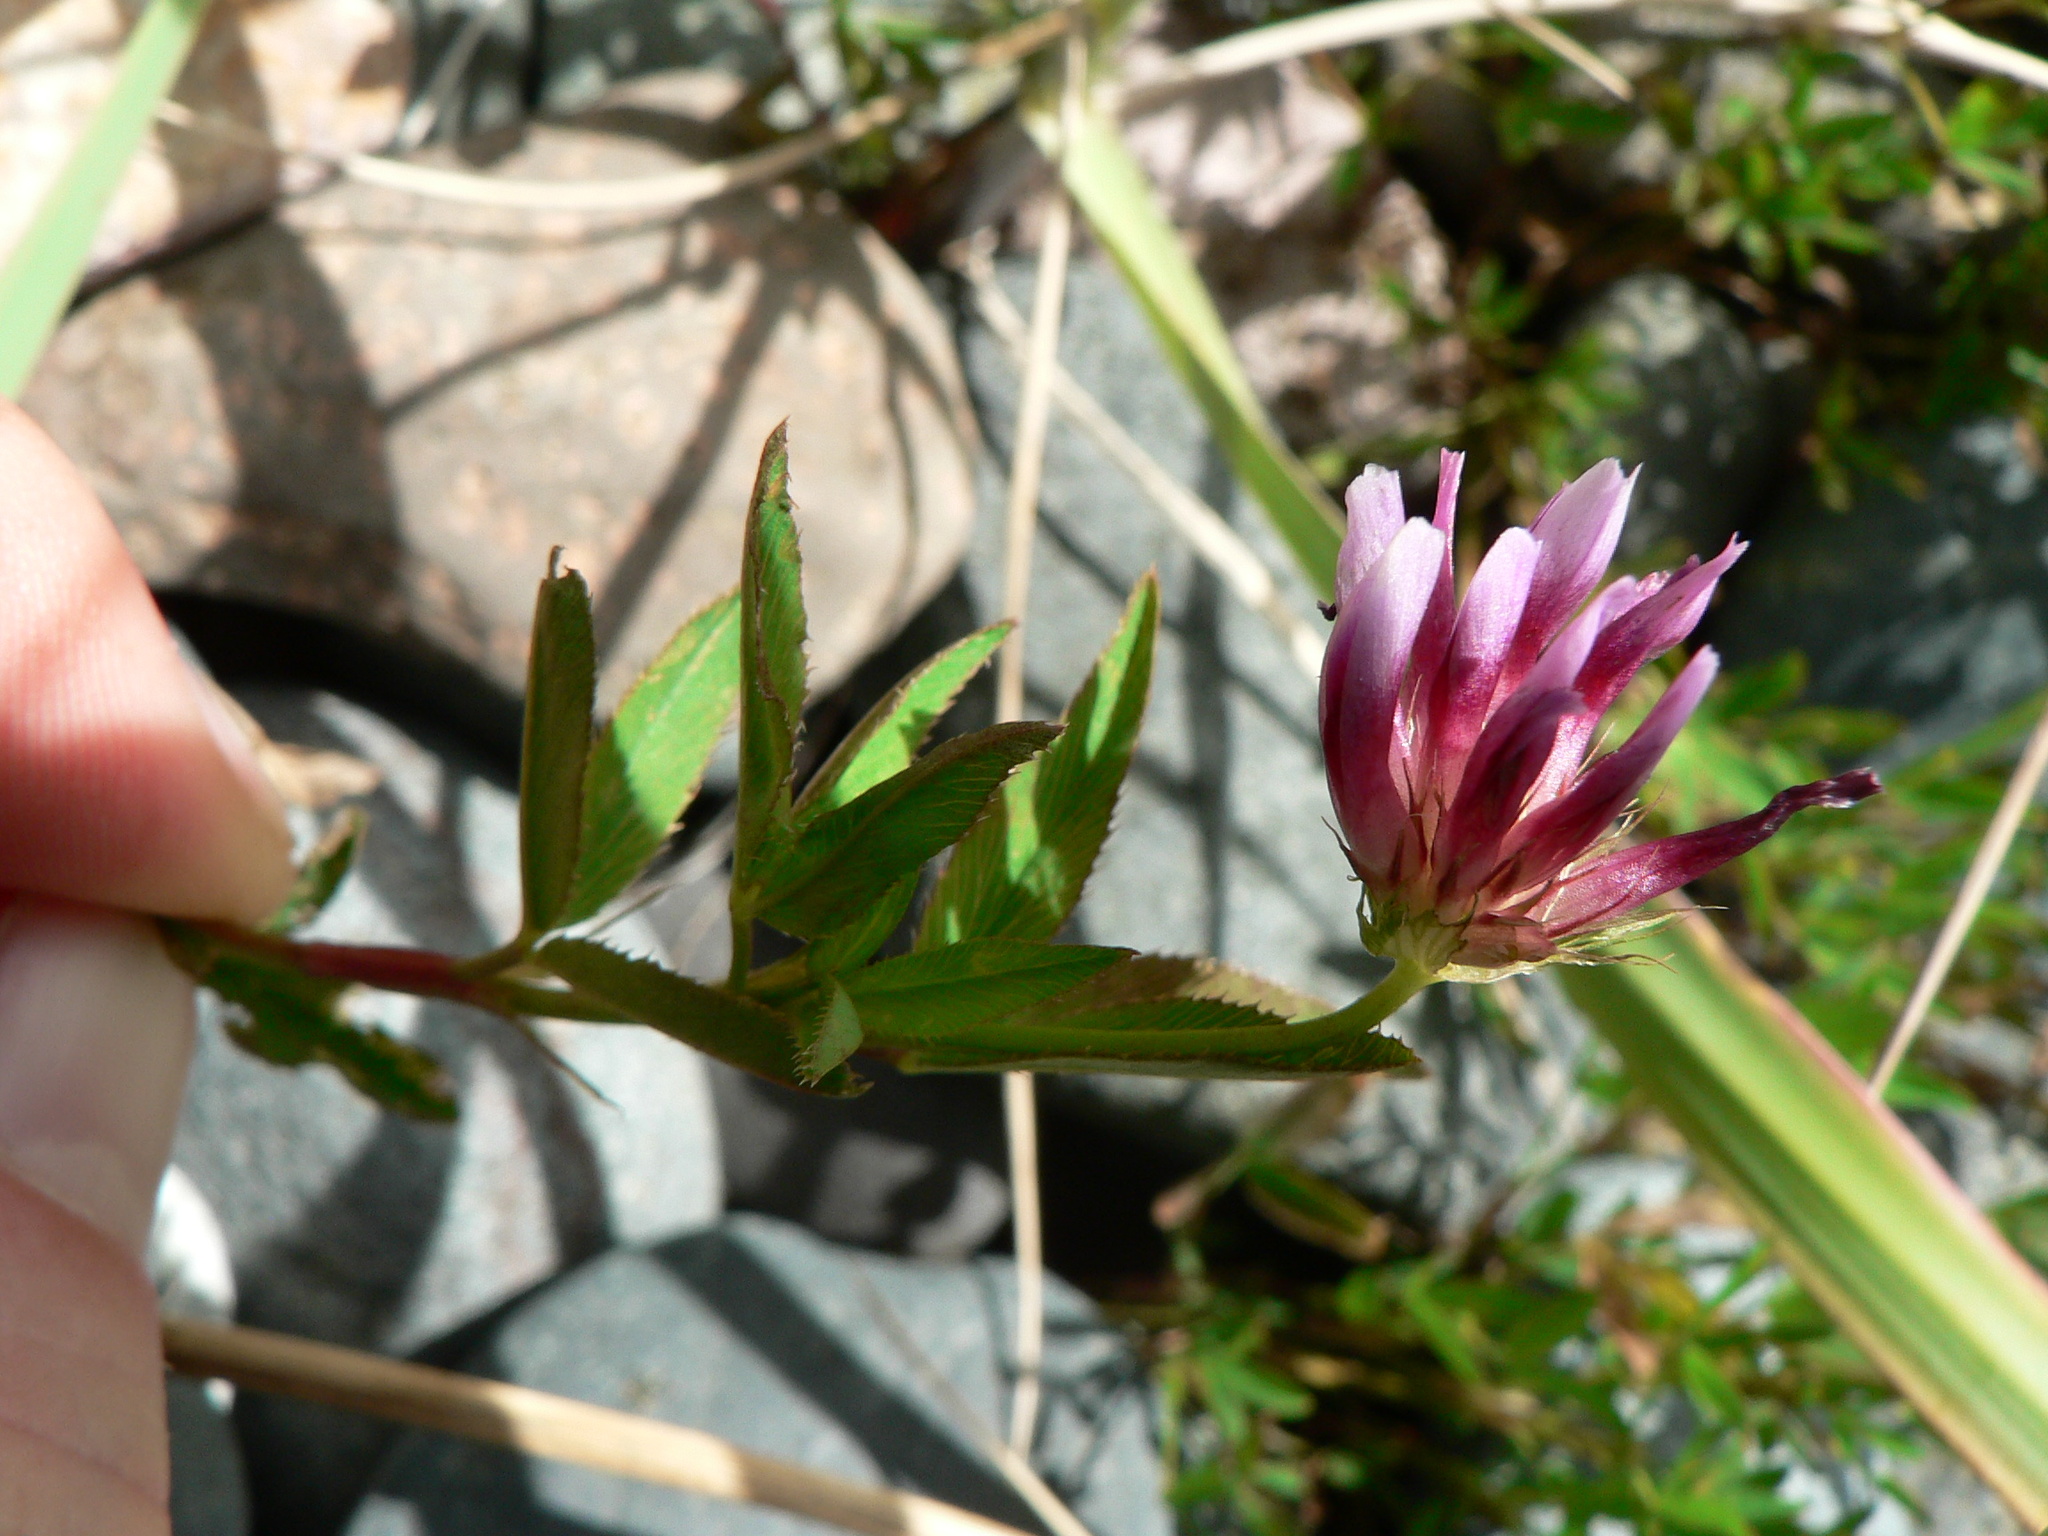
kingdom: Plantae
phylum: Tracheophyta
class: Magnoliopsida
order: Fabales
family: Fabaceae
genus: Trifolium
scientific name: Trifolium wormskioldii
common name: Springbank clover
